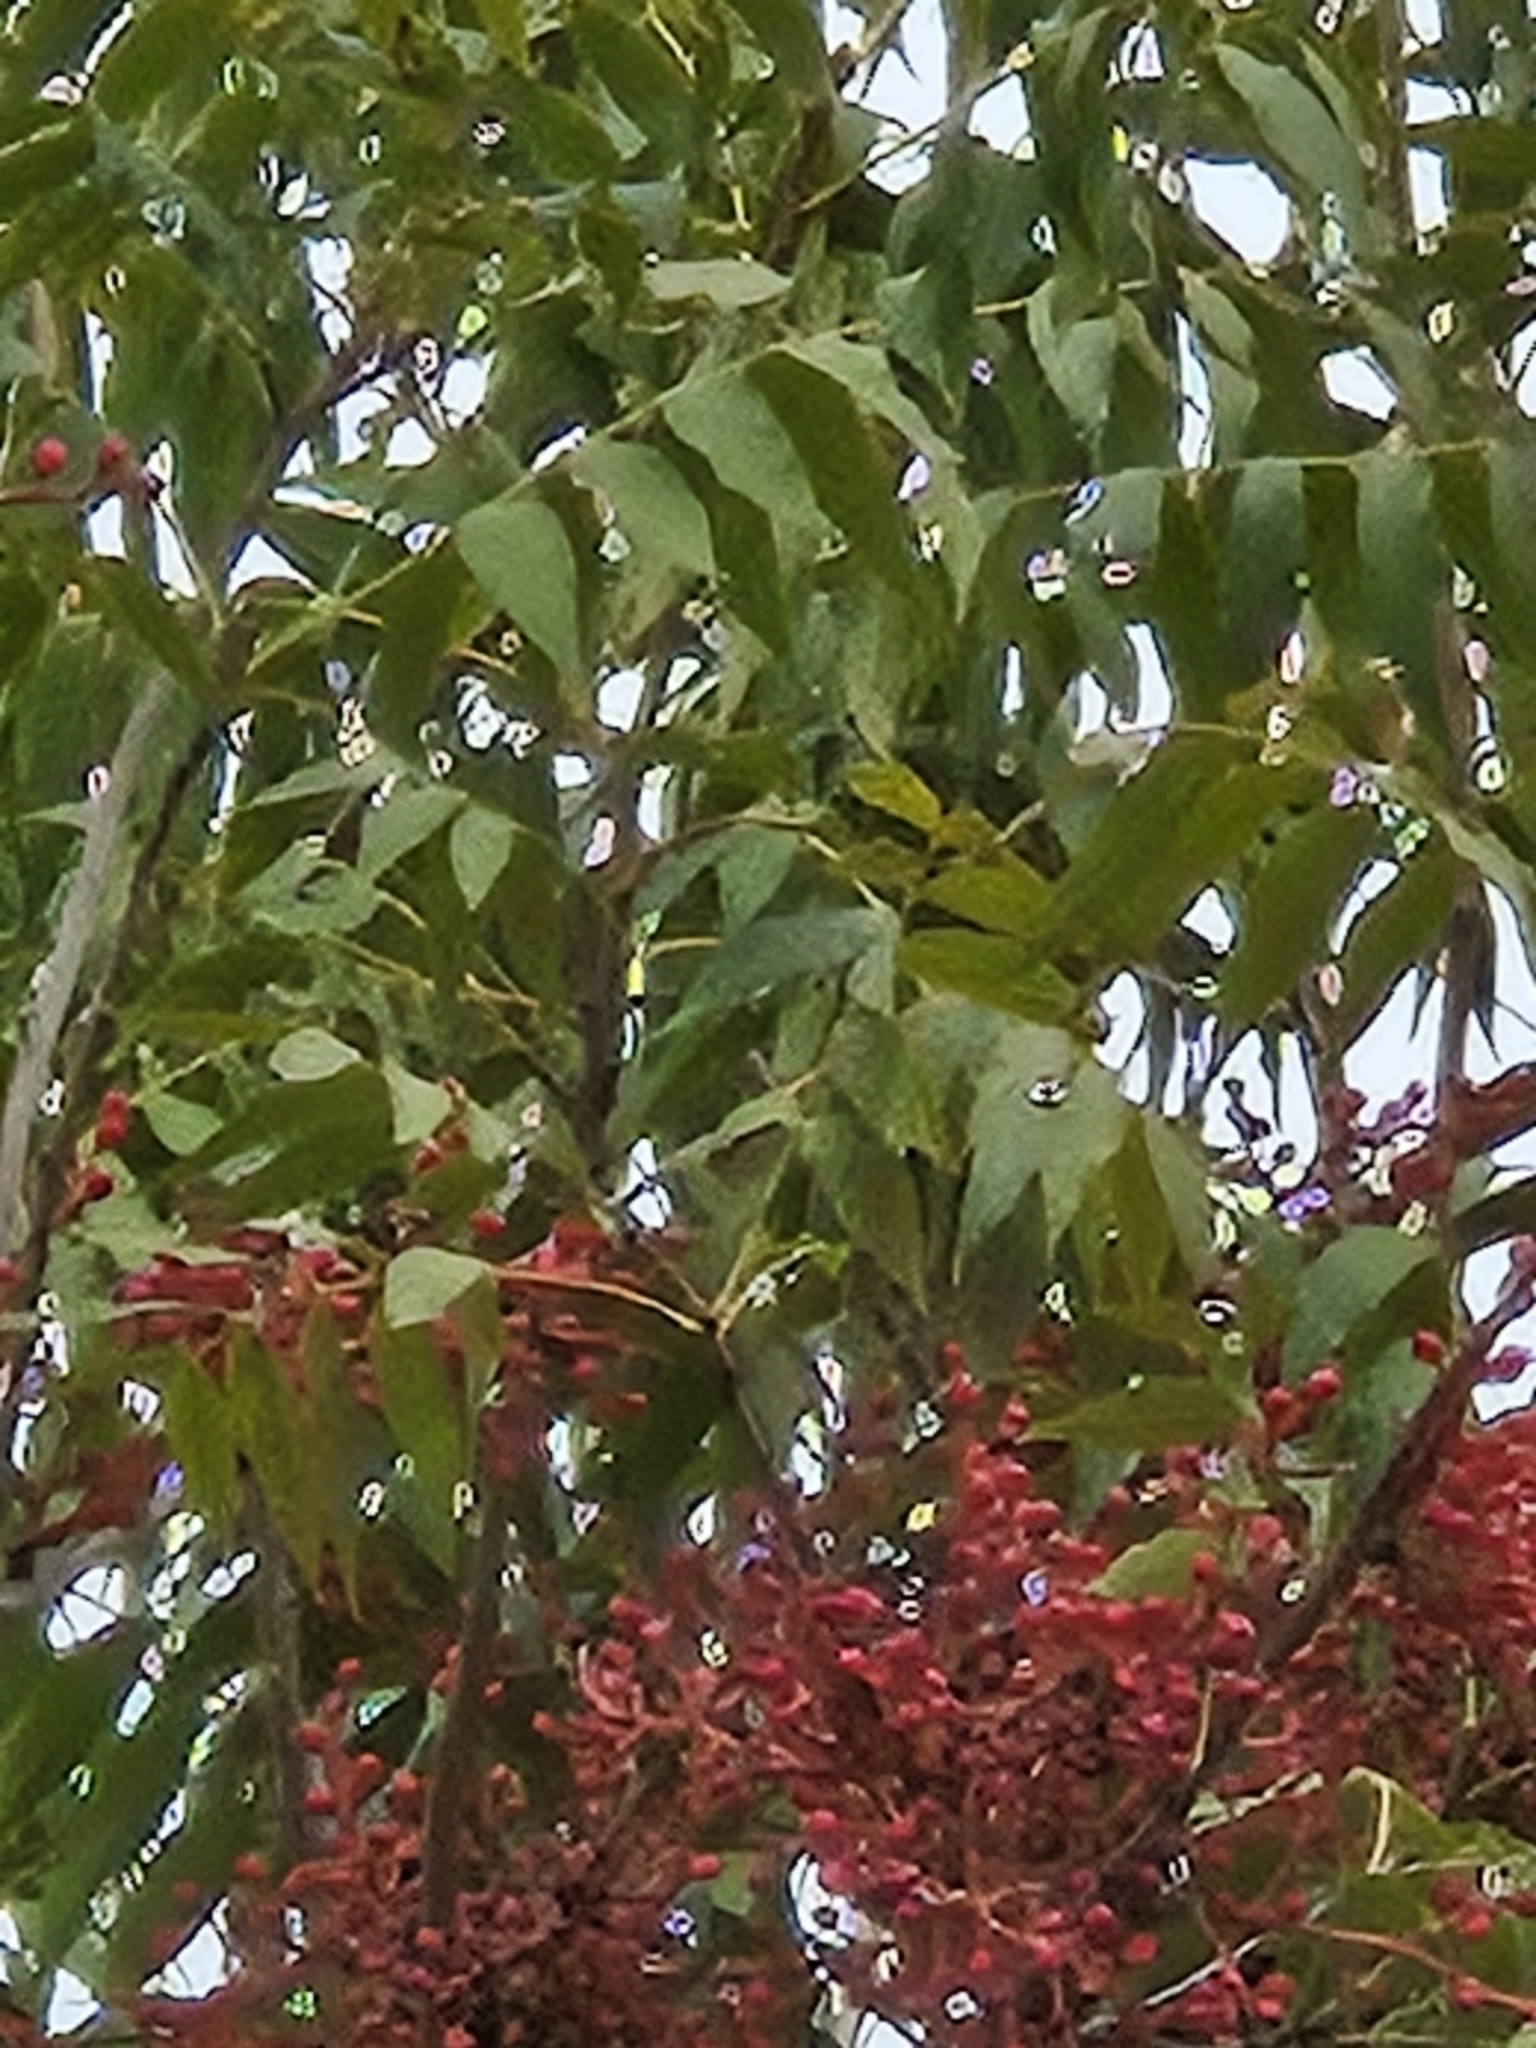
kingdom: Plantae
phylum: Tracheophyta
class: Magnoliopsida
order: Sapindales
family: Anacardiaceae
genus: Pistacia
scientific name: Pistacia chinensis
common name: Chinese pistache
